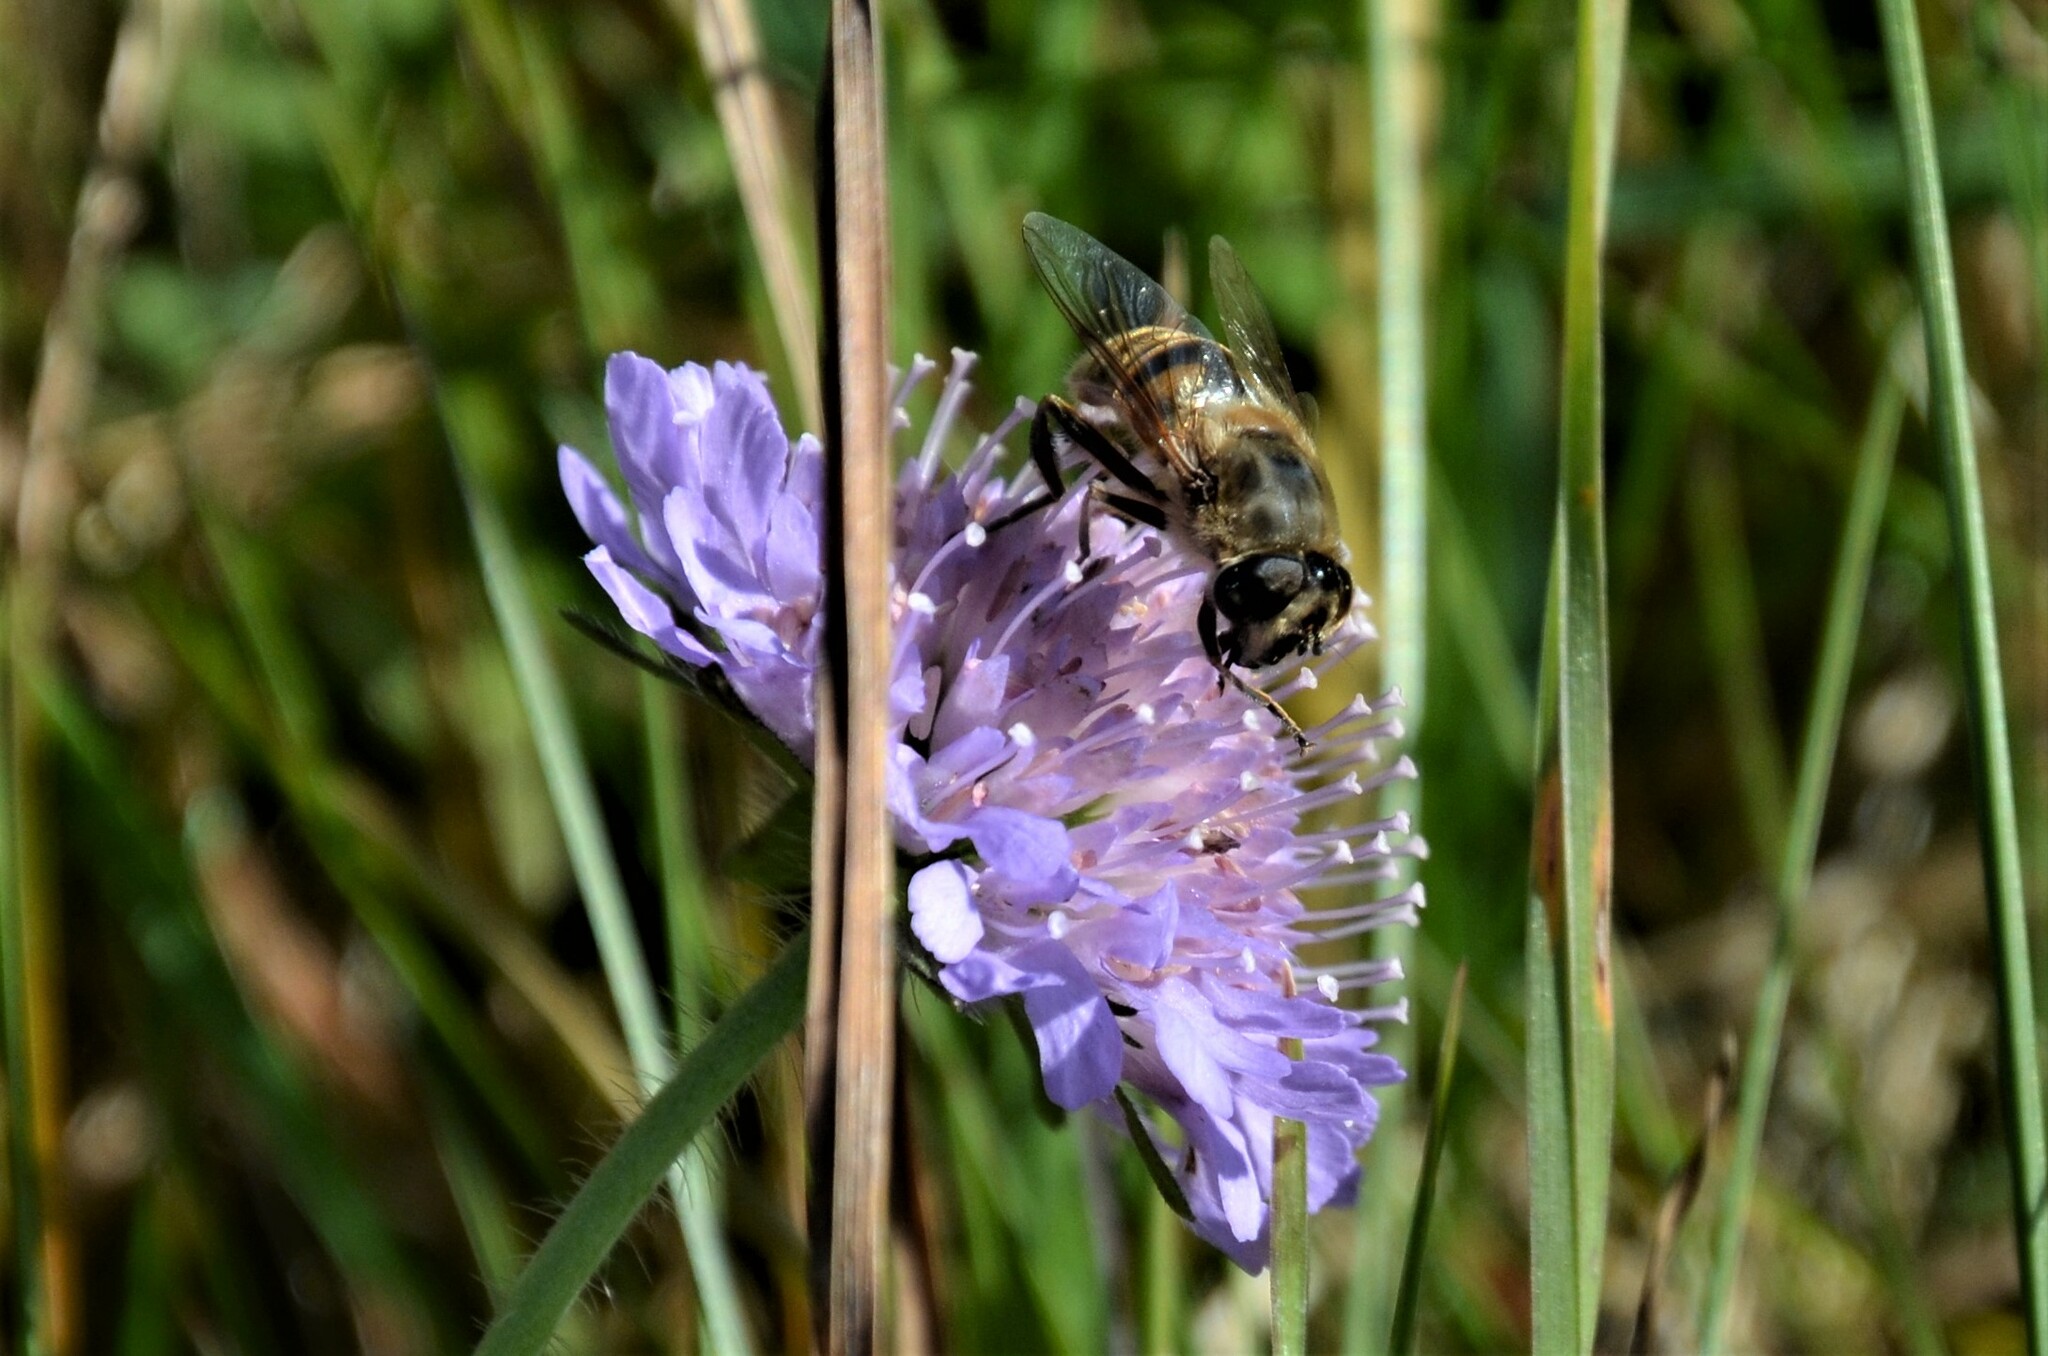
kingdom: Animalia
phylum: Arthropoda
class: Insecta
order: Diptera
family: Syrphidae
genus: Eristalis
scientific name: Eristalis tenax
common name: Drone fly
